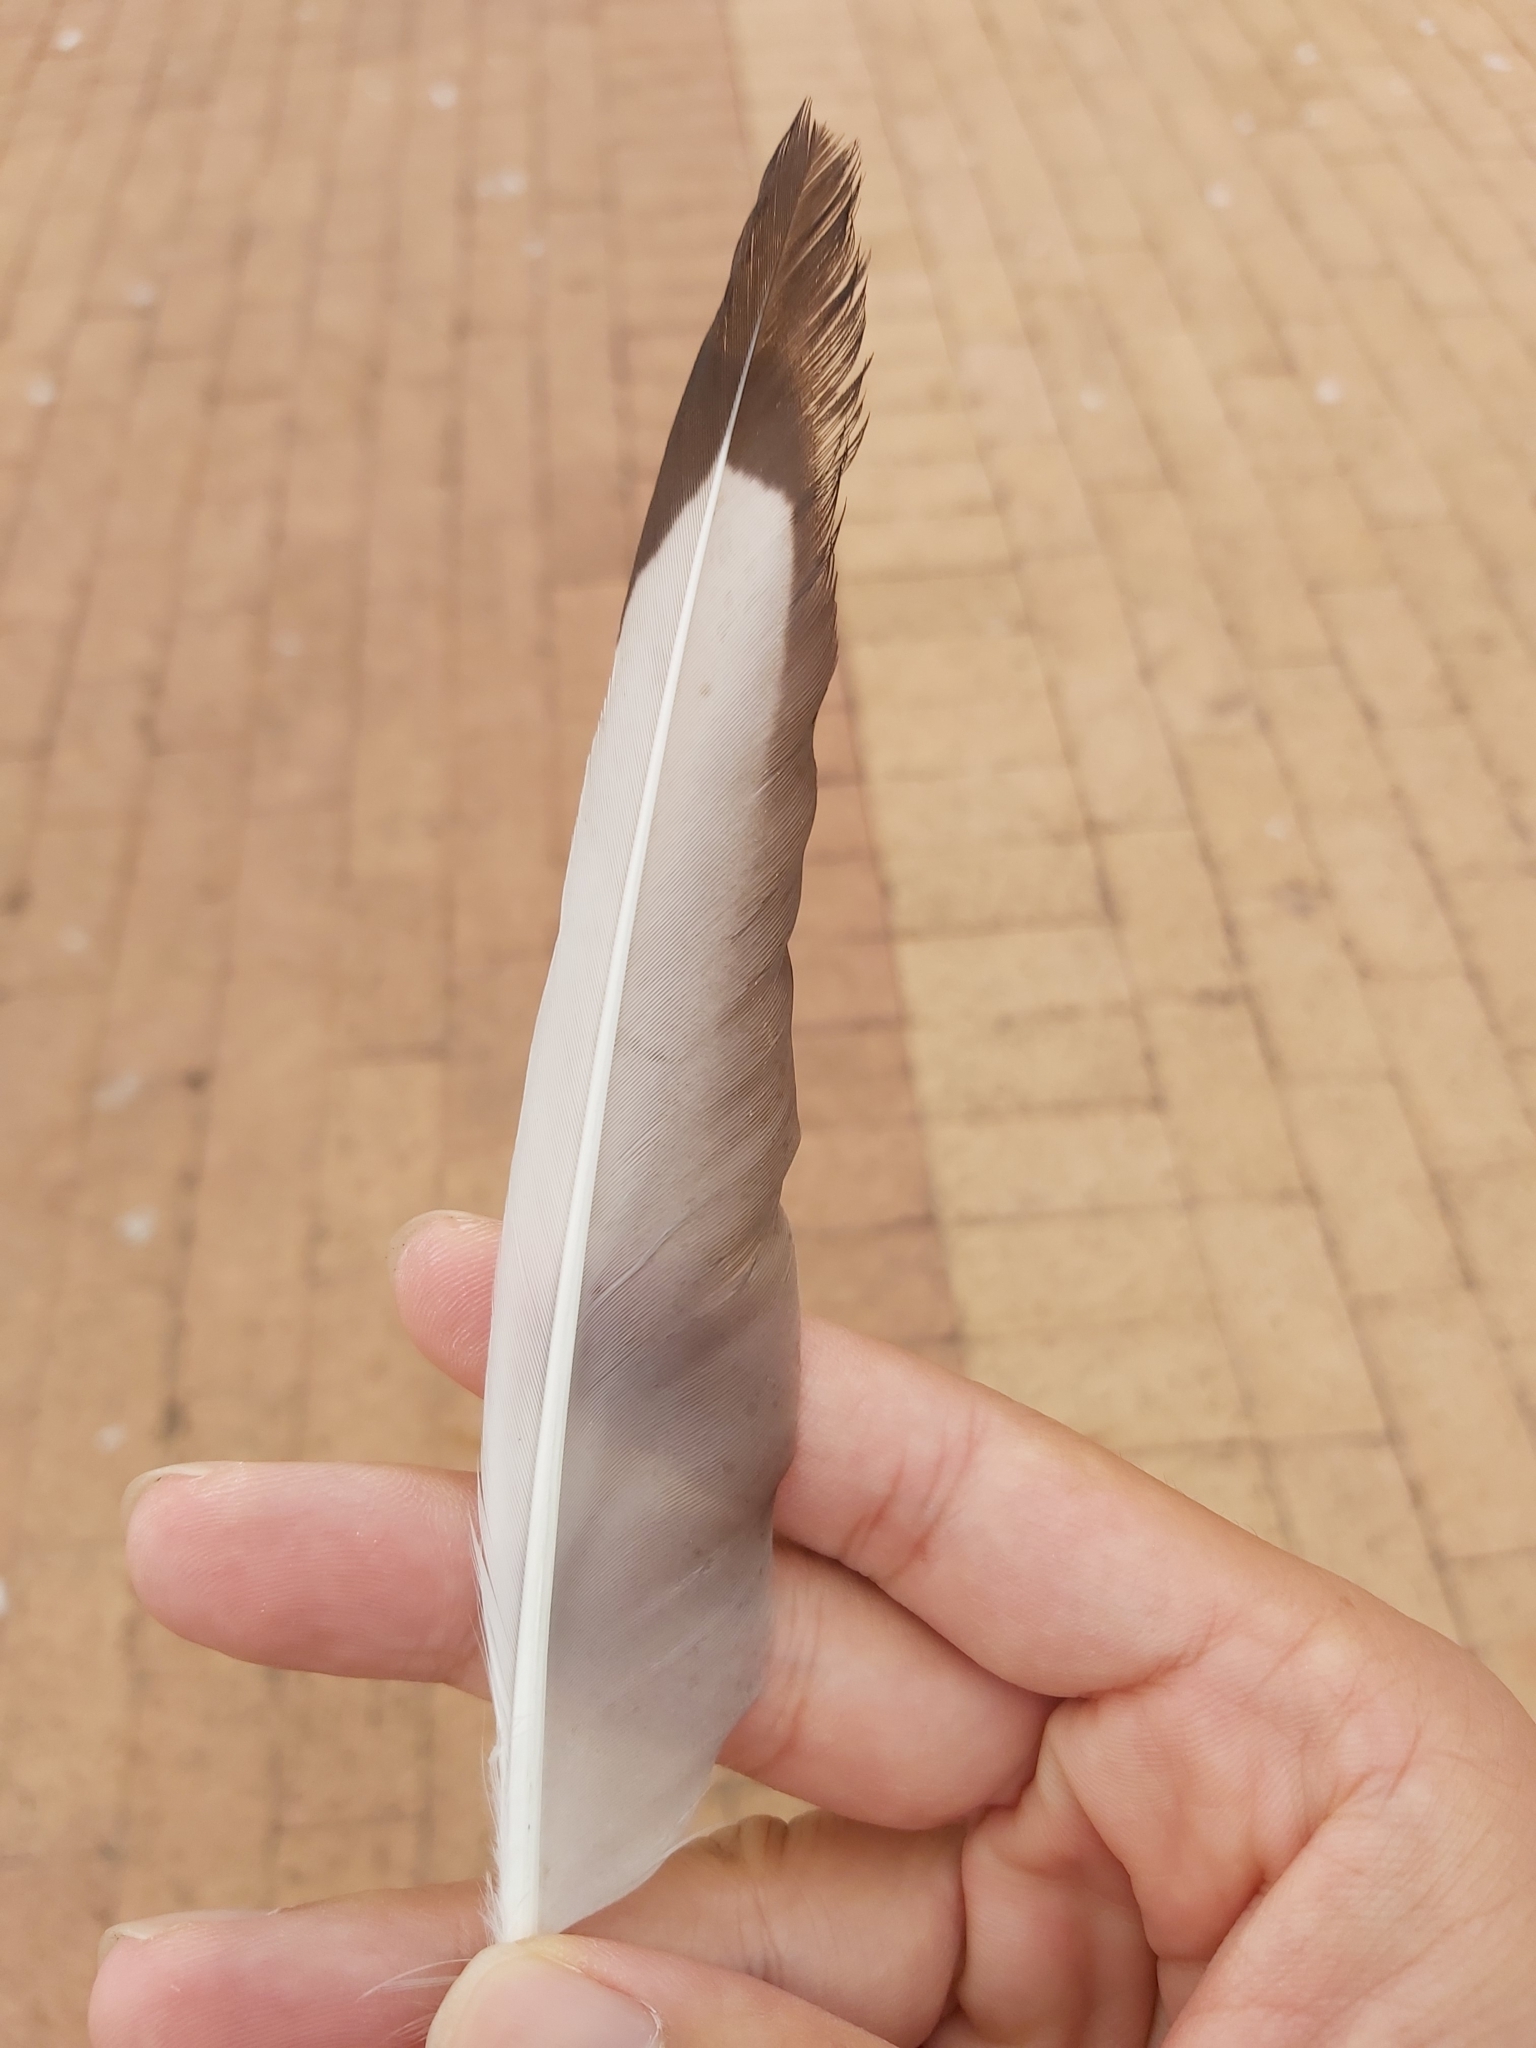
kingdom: Animalia
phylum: Chordata
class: Aves
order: Charadriiformes
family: Laridae
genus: Chroicocephalus
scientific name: Chroicocephalus novaehollandiae
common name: Silver gull
